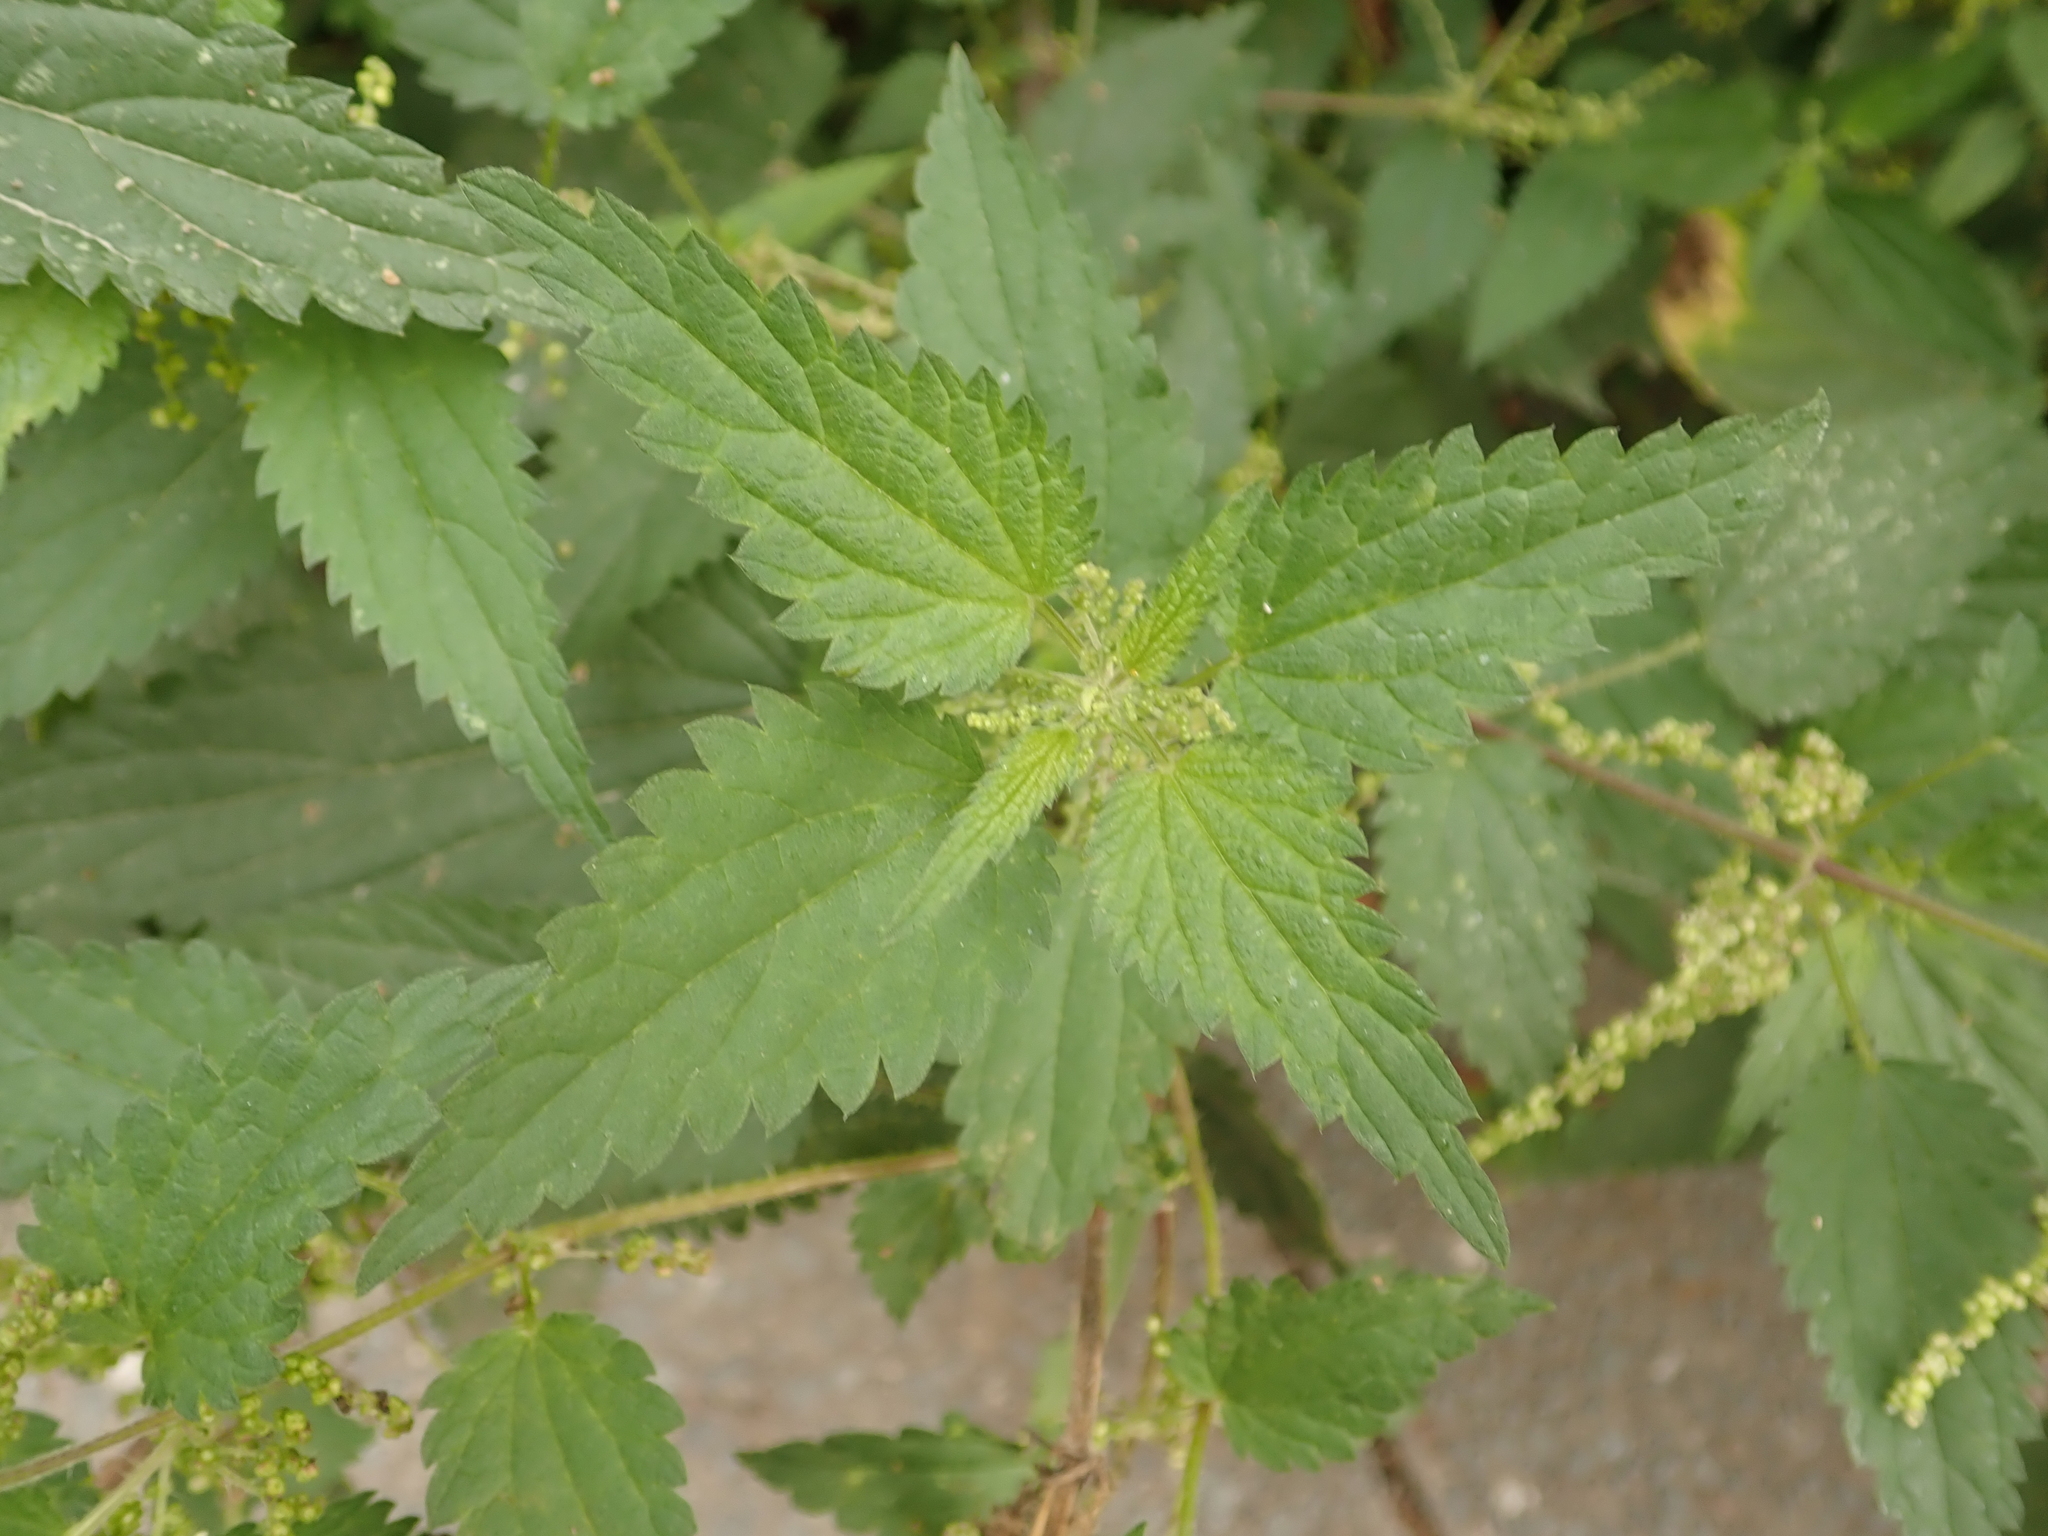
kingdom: Plantae
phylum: Tracheophyta
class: Magnoliopsida
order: Rosales
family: Urticaceae
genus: Urtica
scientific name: Urtica dioica
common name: Common nettle
